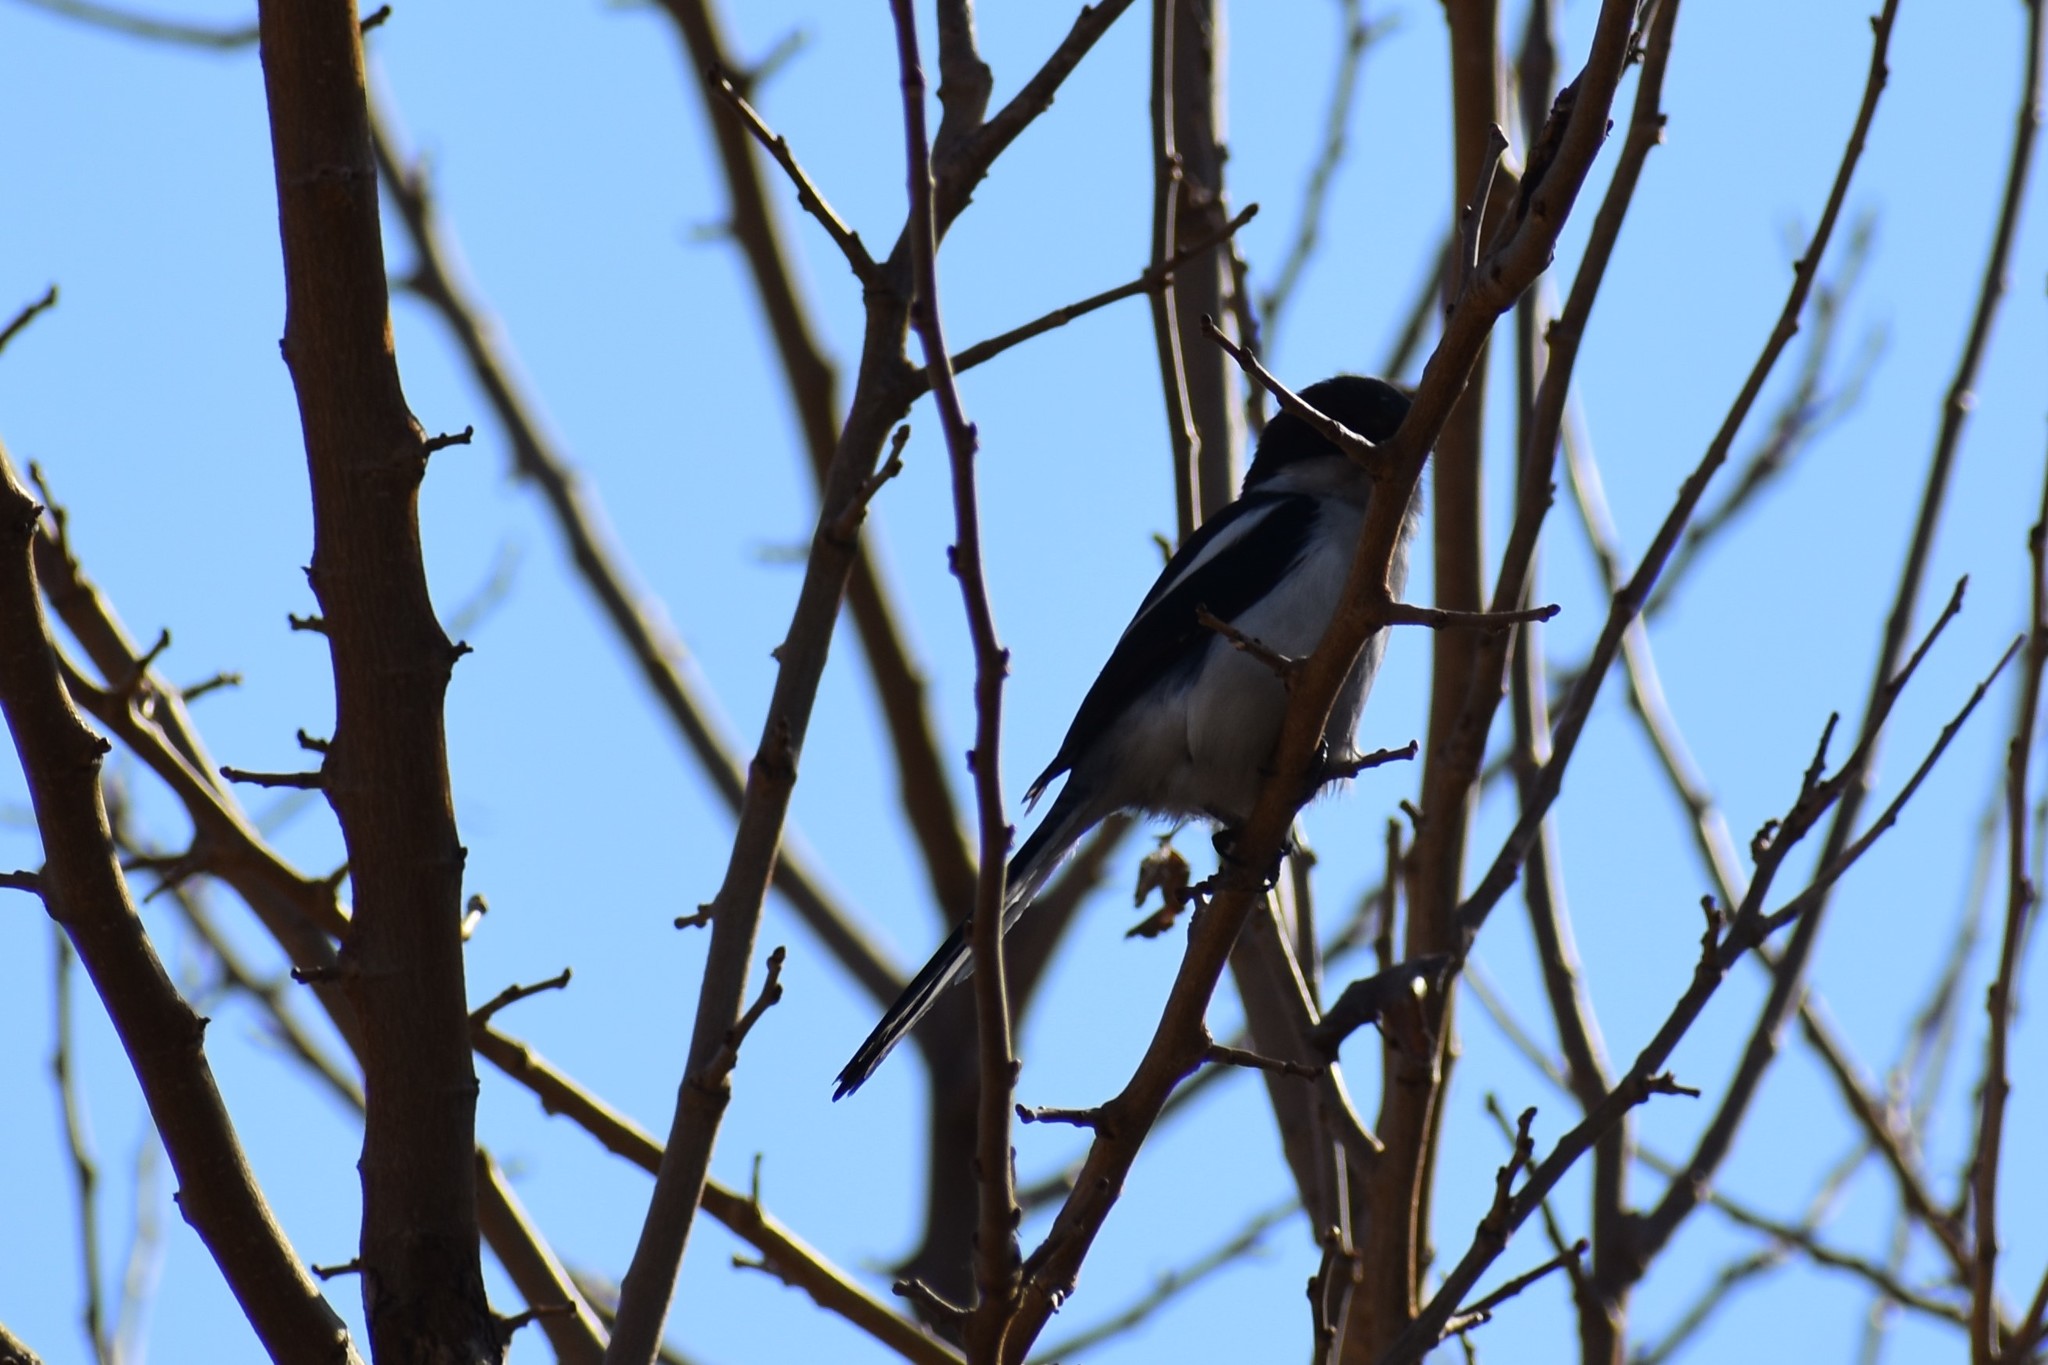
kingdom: Animalia
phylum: Chordata
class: Aves
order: Passeriformes
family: Laniidae
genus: Lanius
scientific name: Lanius collaris
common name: Southern fiscal
